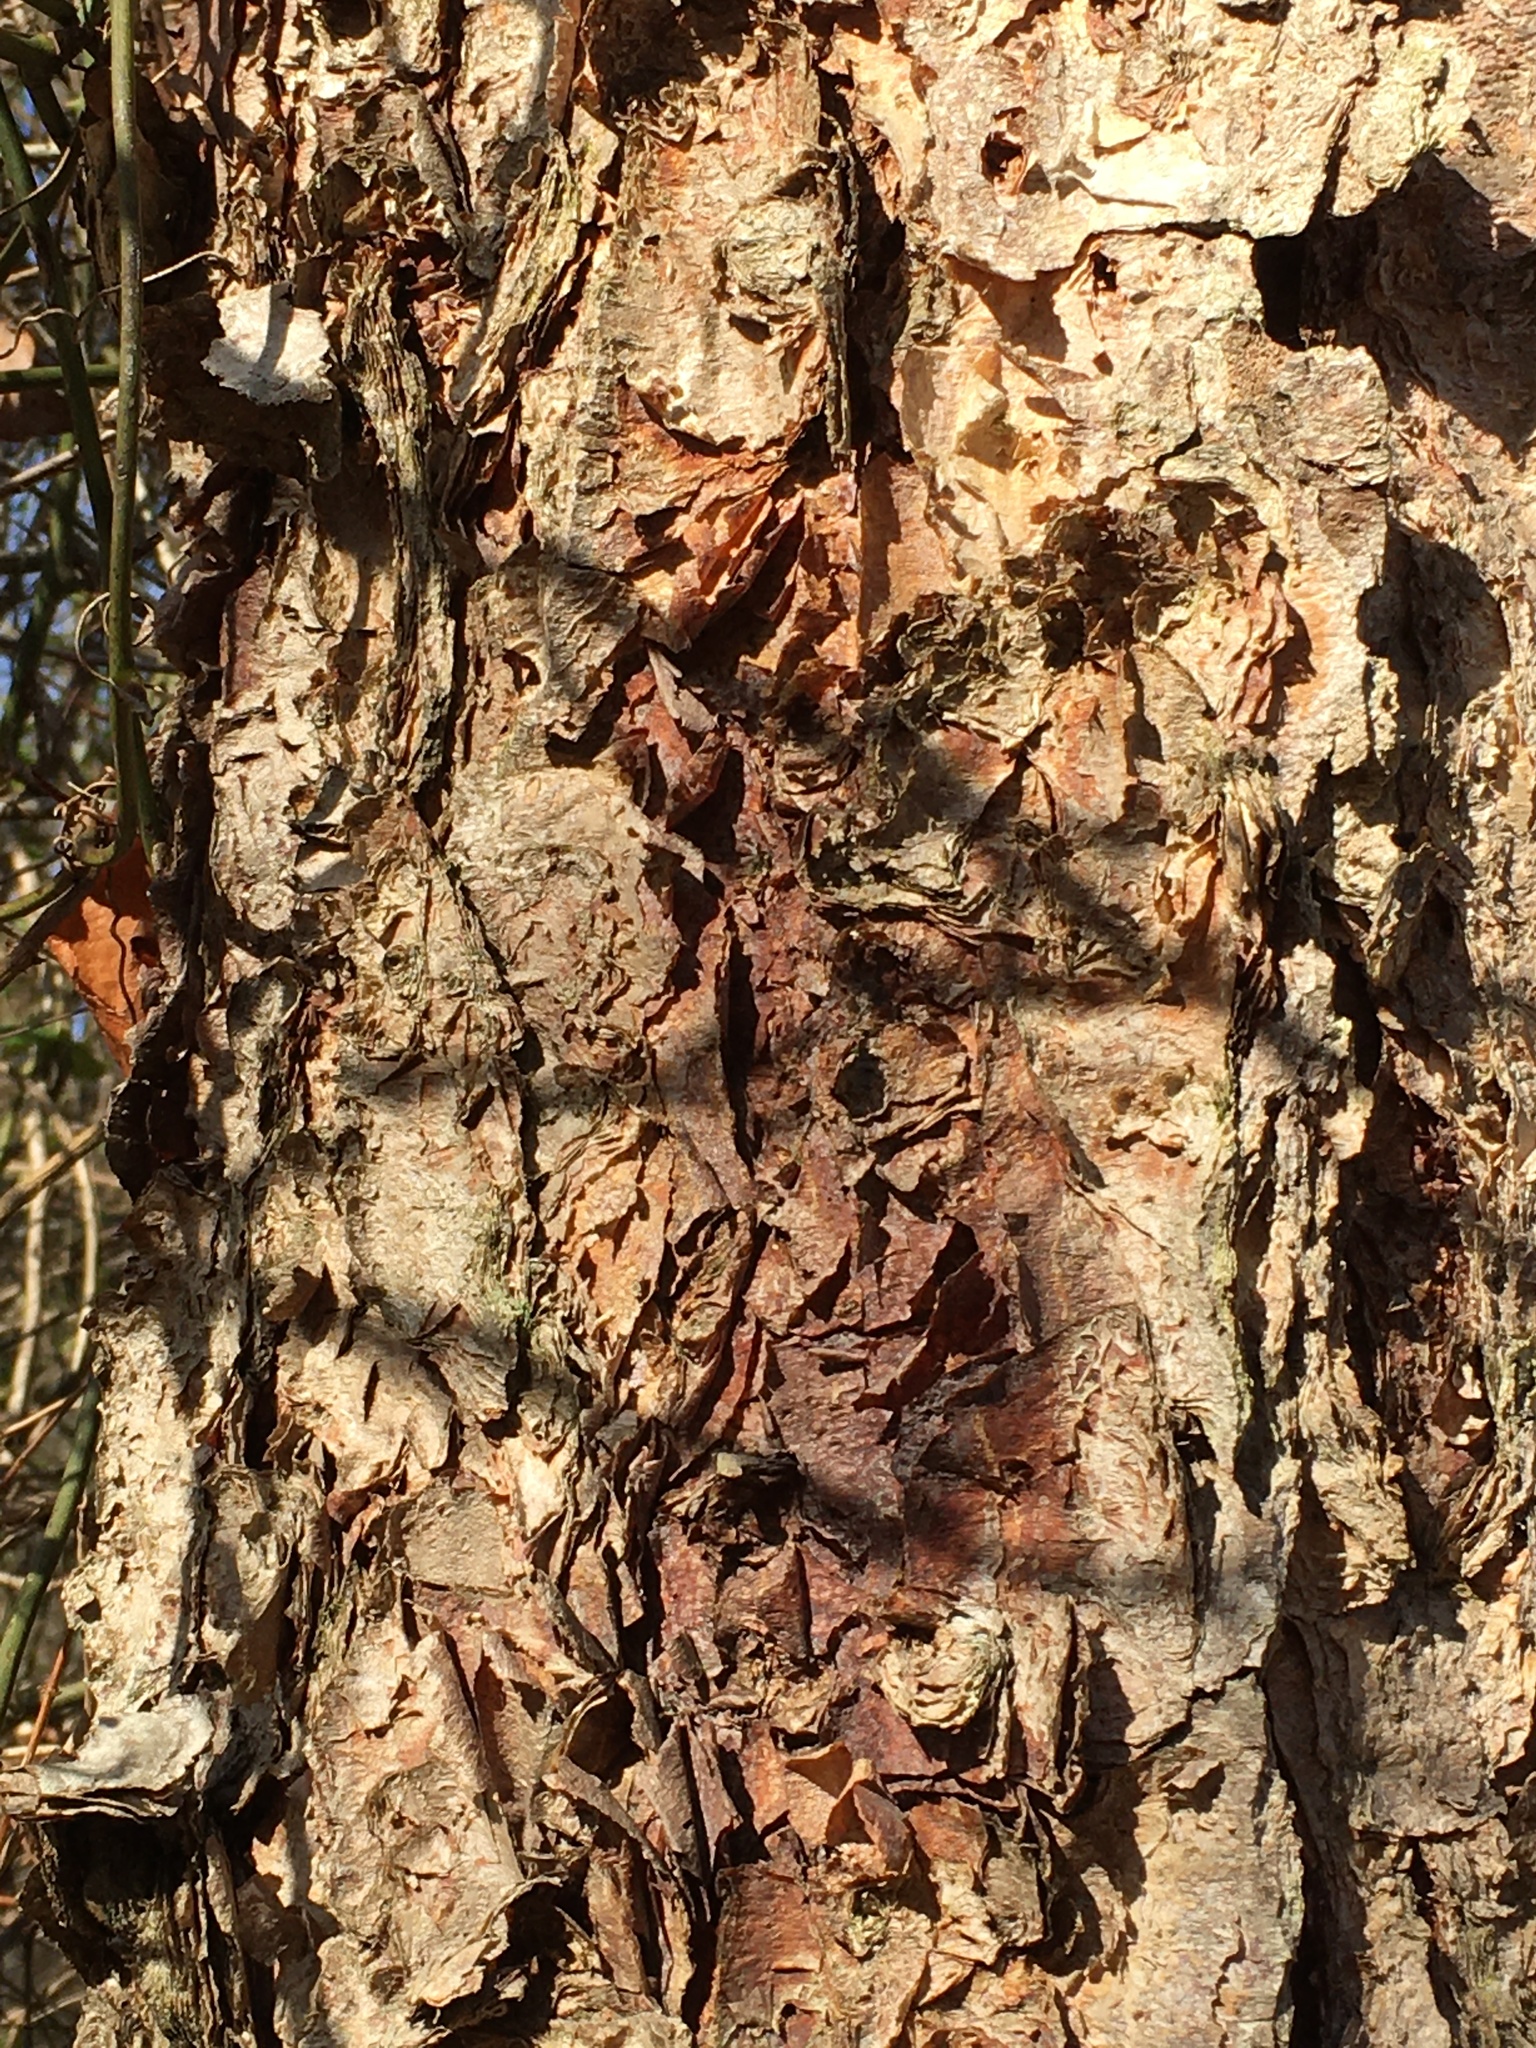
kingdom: Plantae
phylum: Tracheophyta
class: Magnoliopsida
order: Fagales
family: Betulaceae
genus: Betula
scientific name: Betula nigra
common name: Black birch
